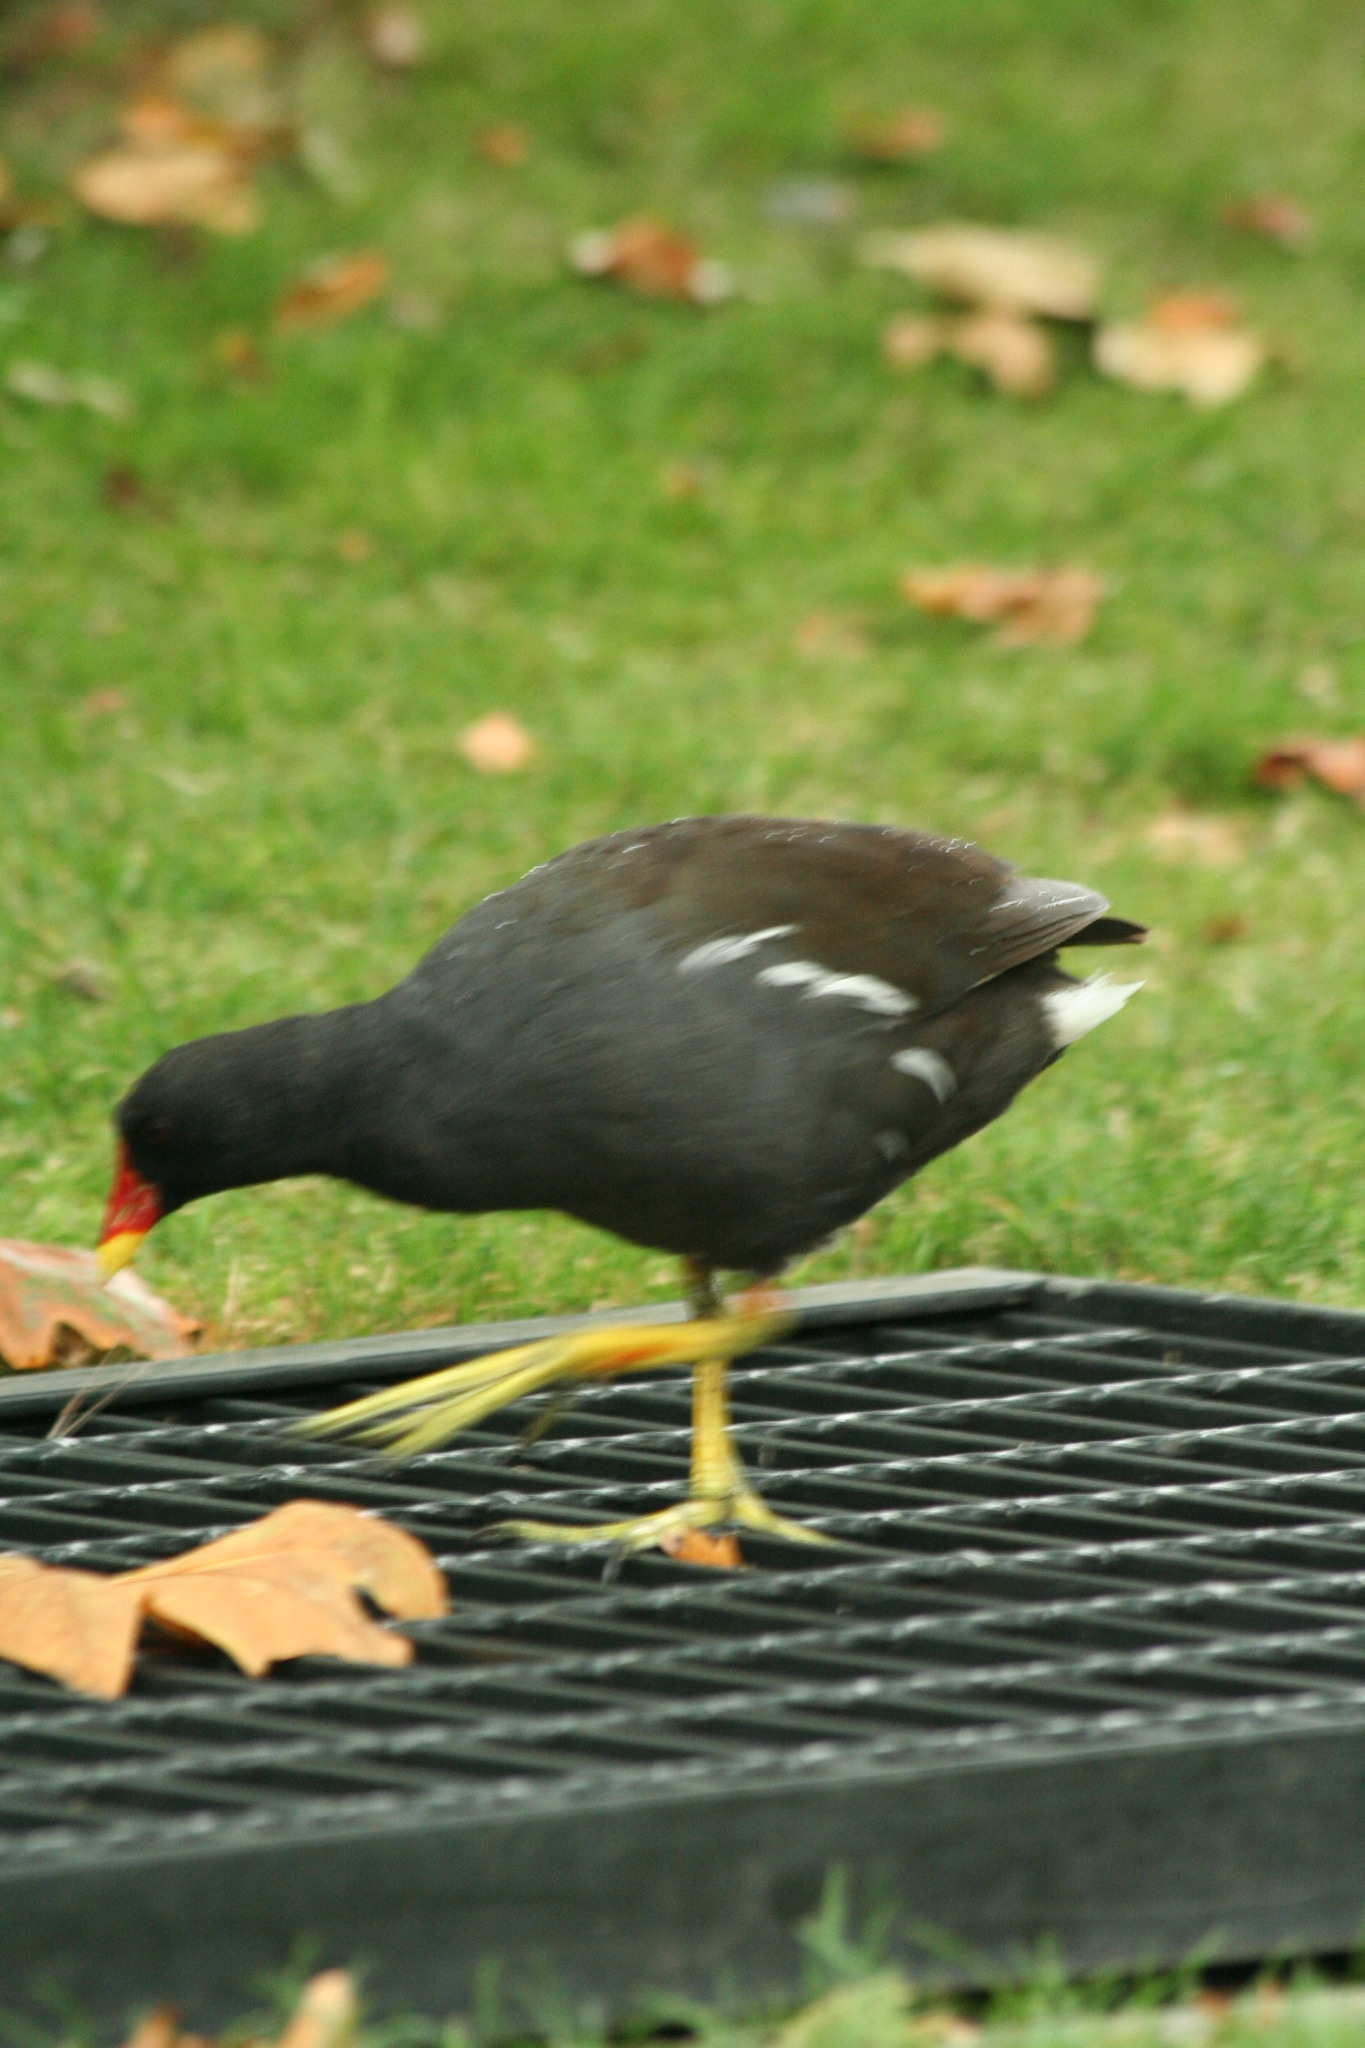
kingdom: Animalia
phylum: Chordata
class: Aves
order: Gruiformes
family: Rallidae
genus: Gallinula
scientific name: Gallinula chloropus
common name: Common moorhen
